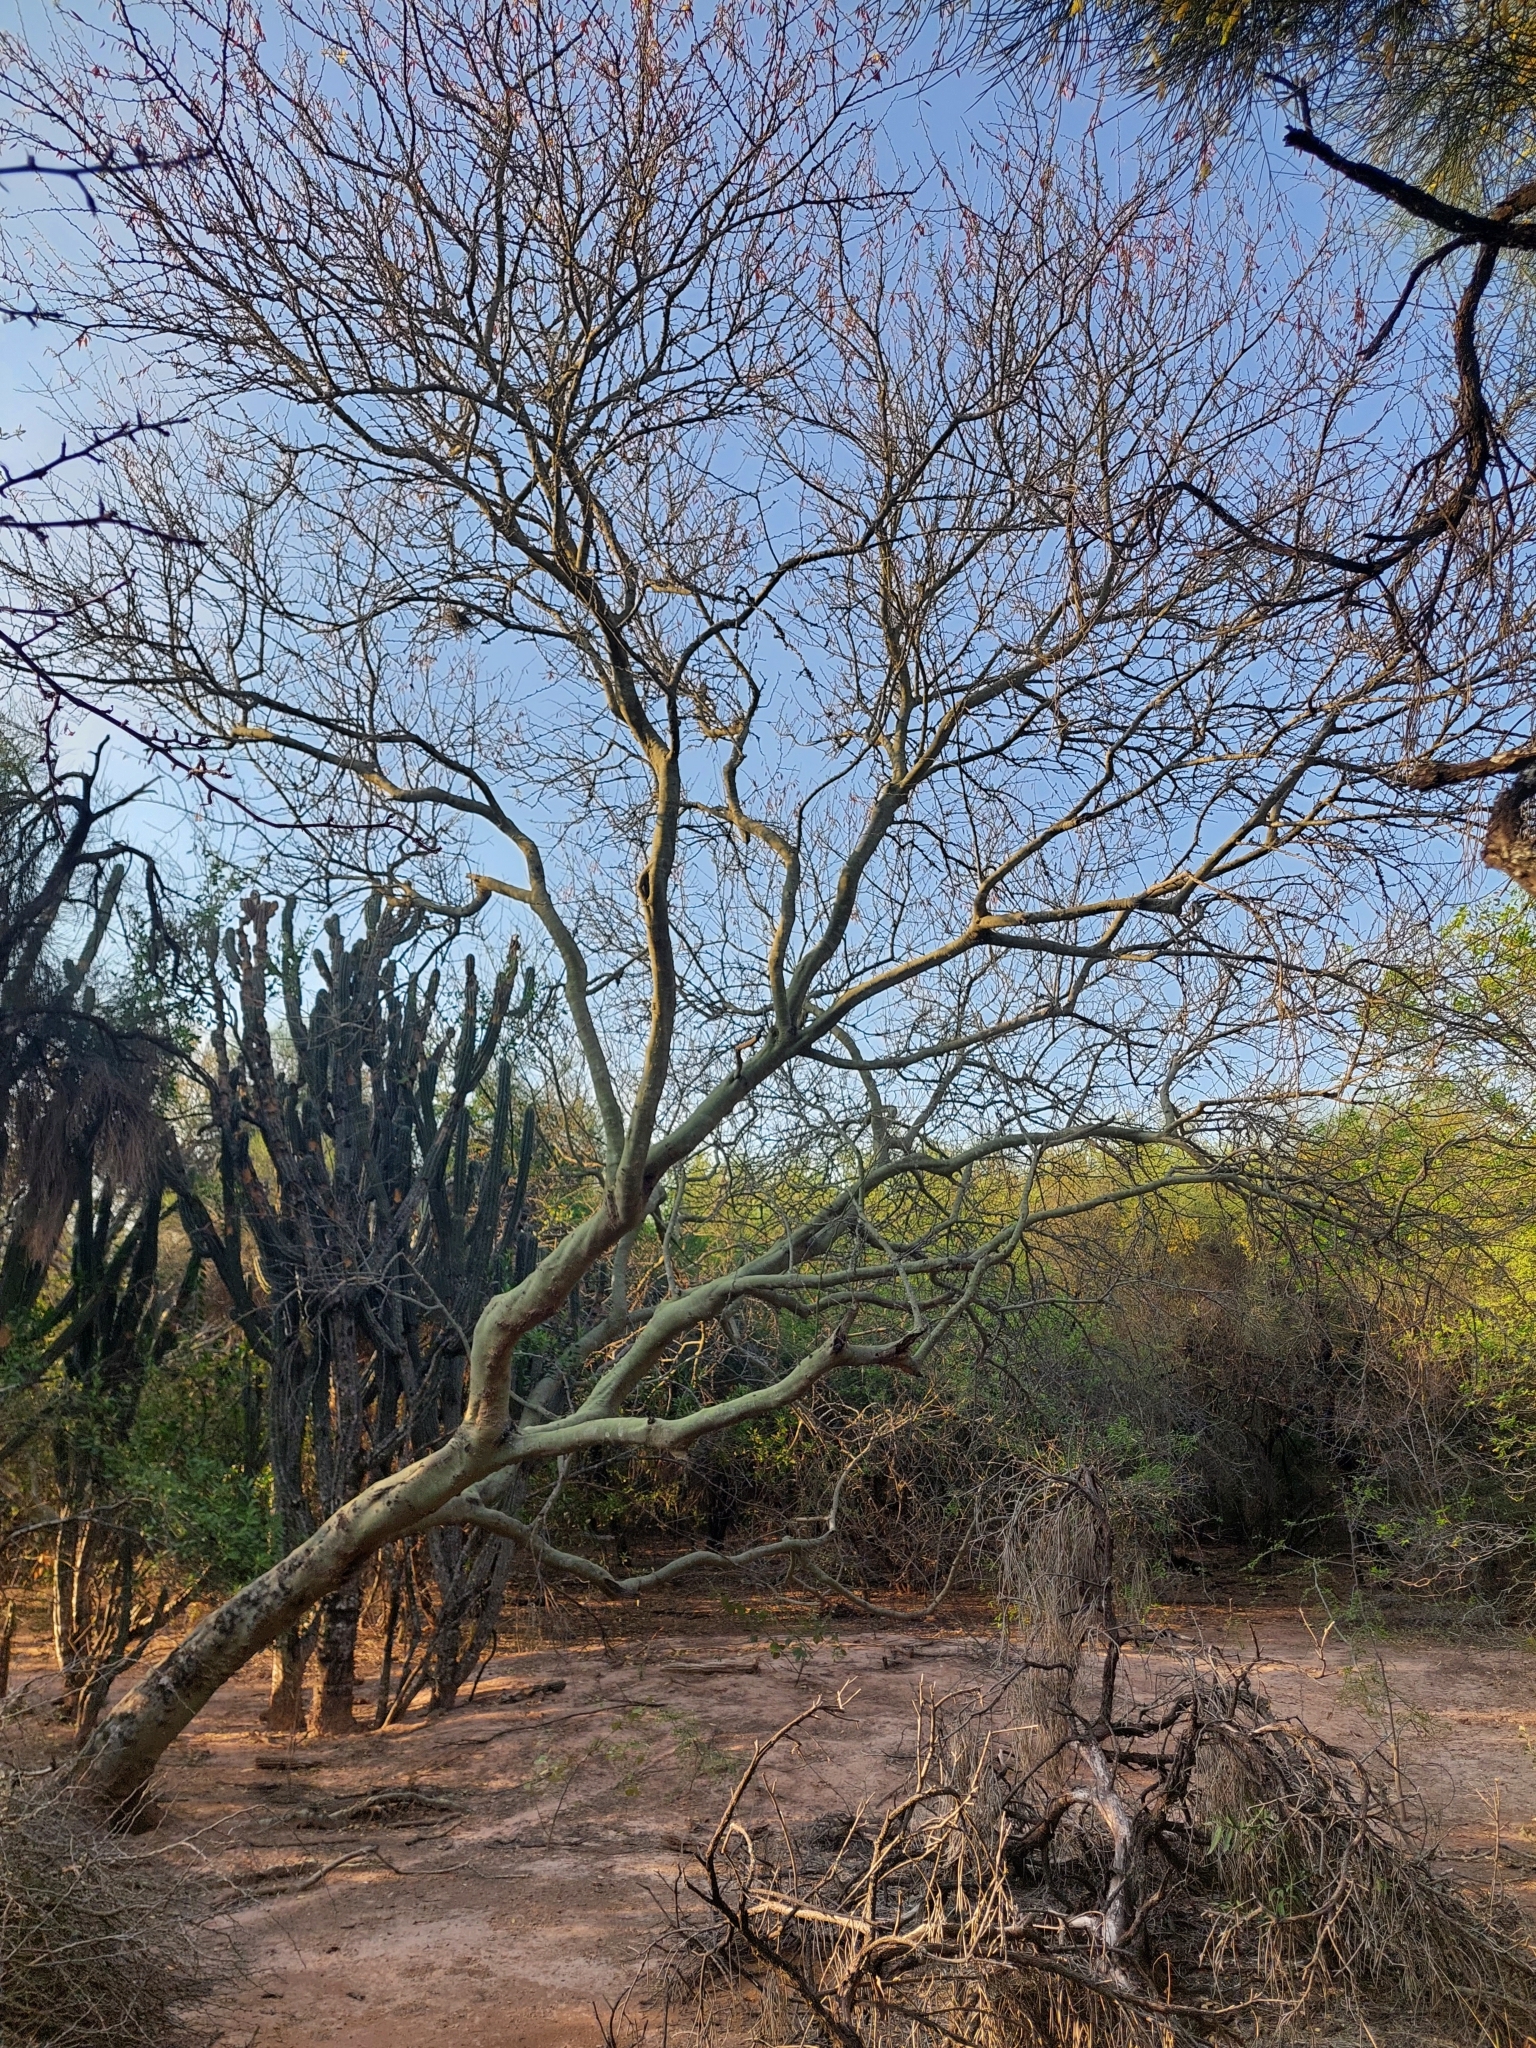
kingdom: Plantae
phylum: Tracheophyta
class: Magnoliopsida
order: Fabales
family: Fabaceae
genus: Parkinsonia
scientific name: Parkinsonia praecox
